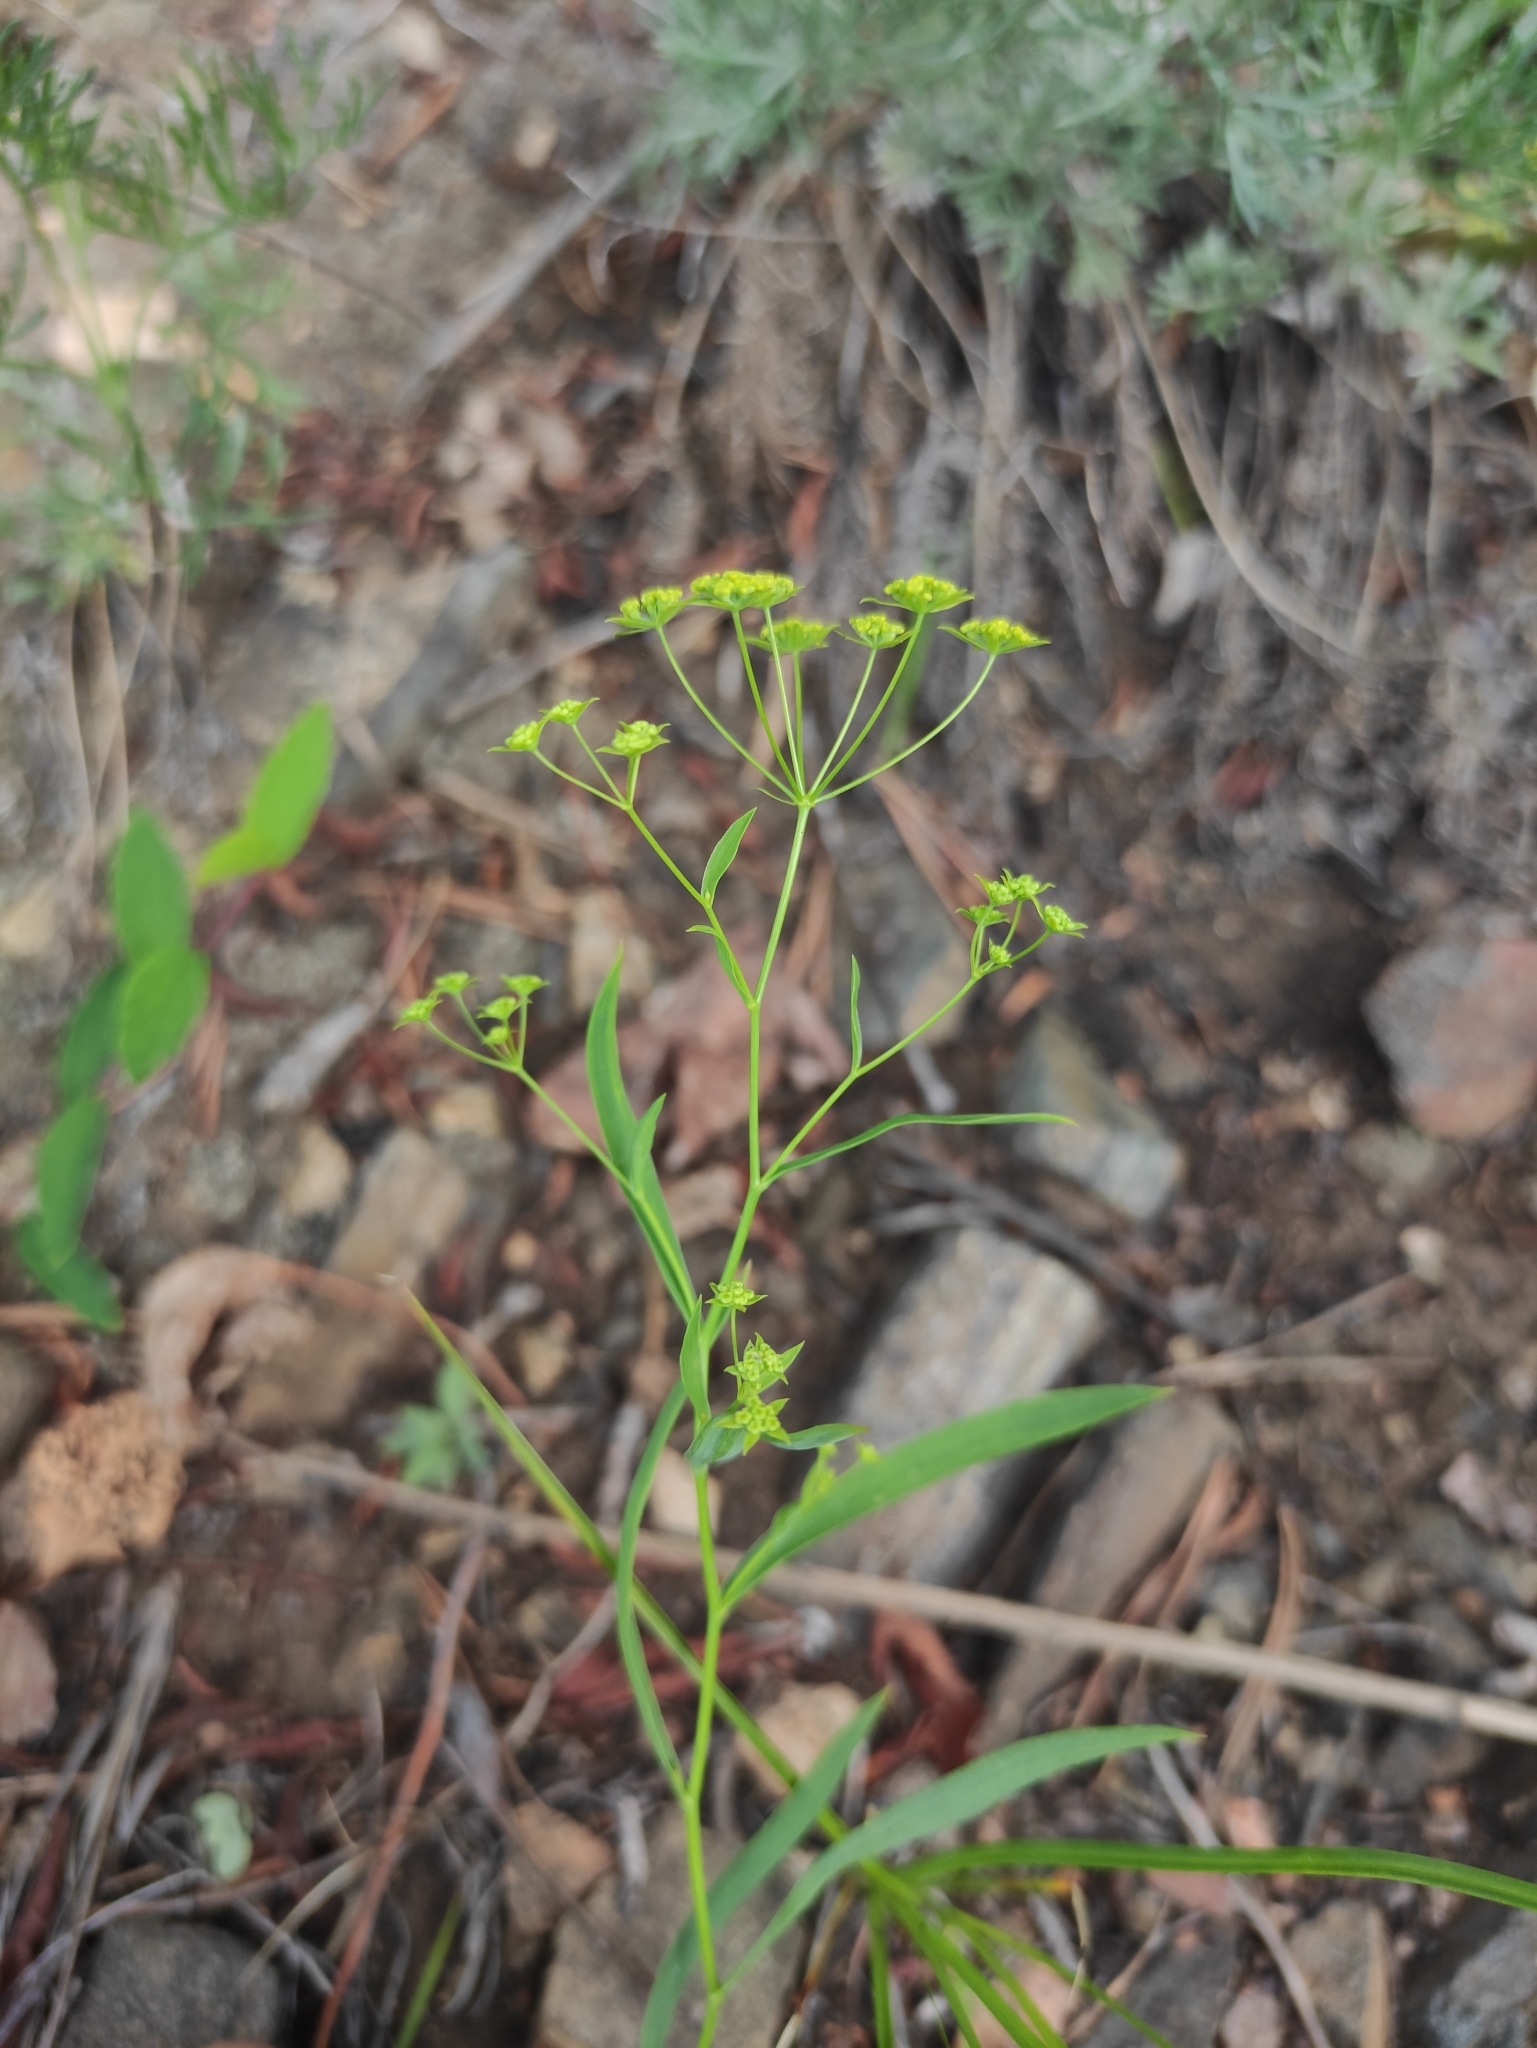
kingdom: Plantae
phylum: Tracheophyta
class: Magnoliopsida
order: Apiales
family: Apiaceae
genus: Bupleurum
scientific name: Bupleurum scorzonerifolium
